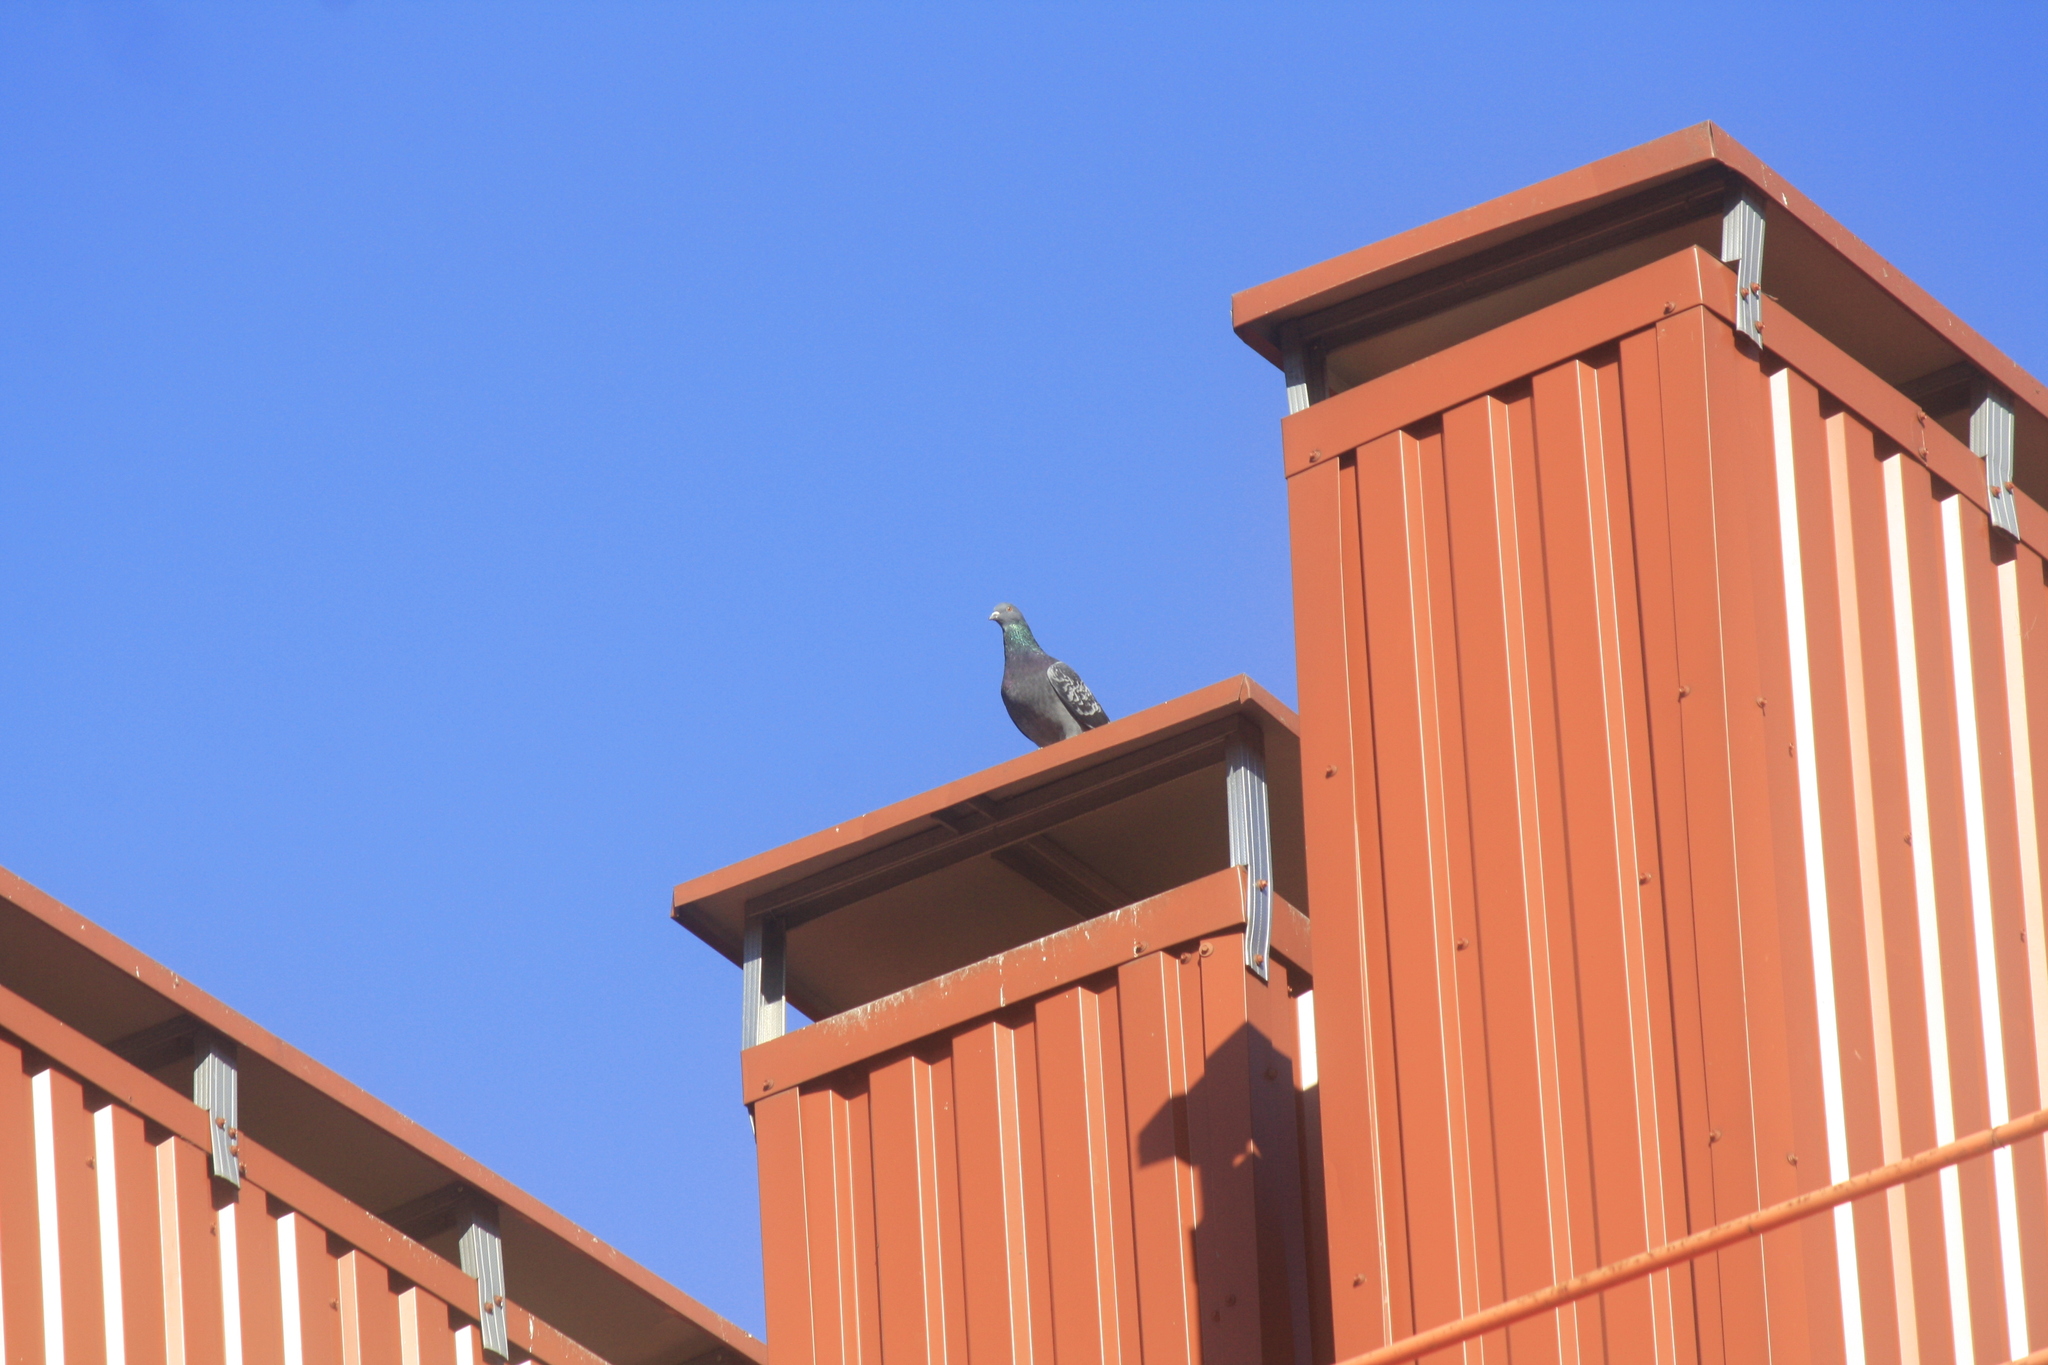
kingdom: Animalia
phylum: Chordata
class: Aves
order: Columbiformes
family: Columbidae
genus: Columba
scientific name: Columba livia
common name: Rock pigeon
